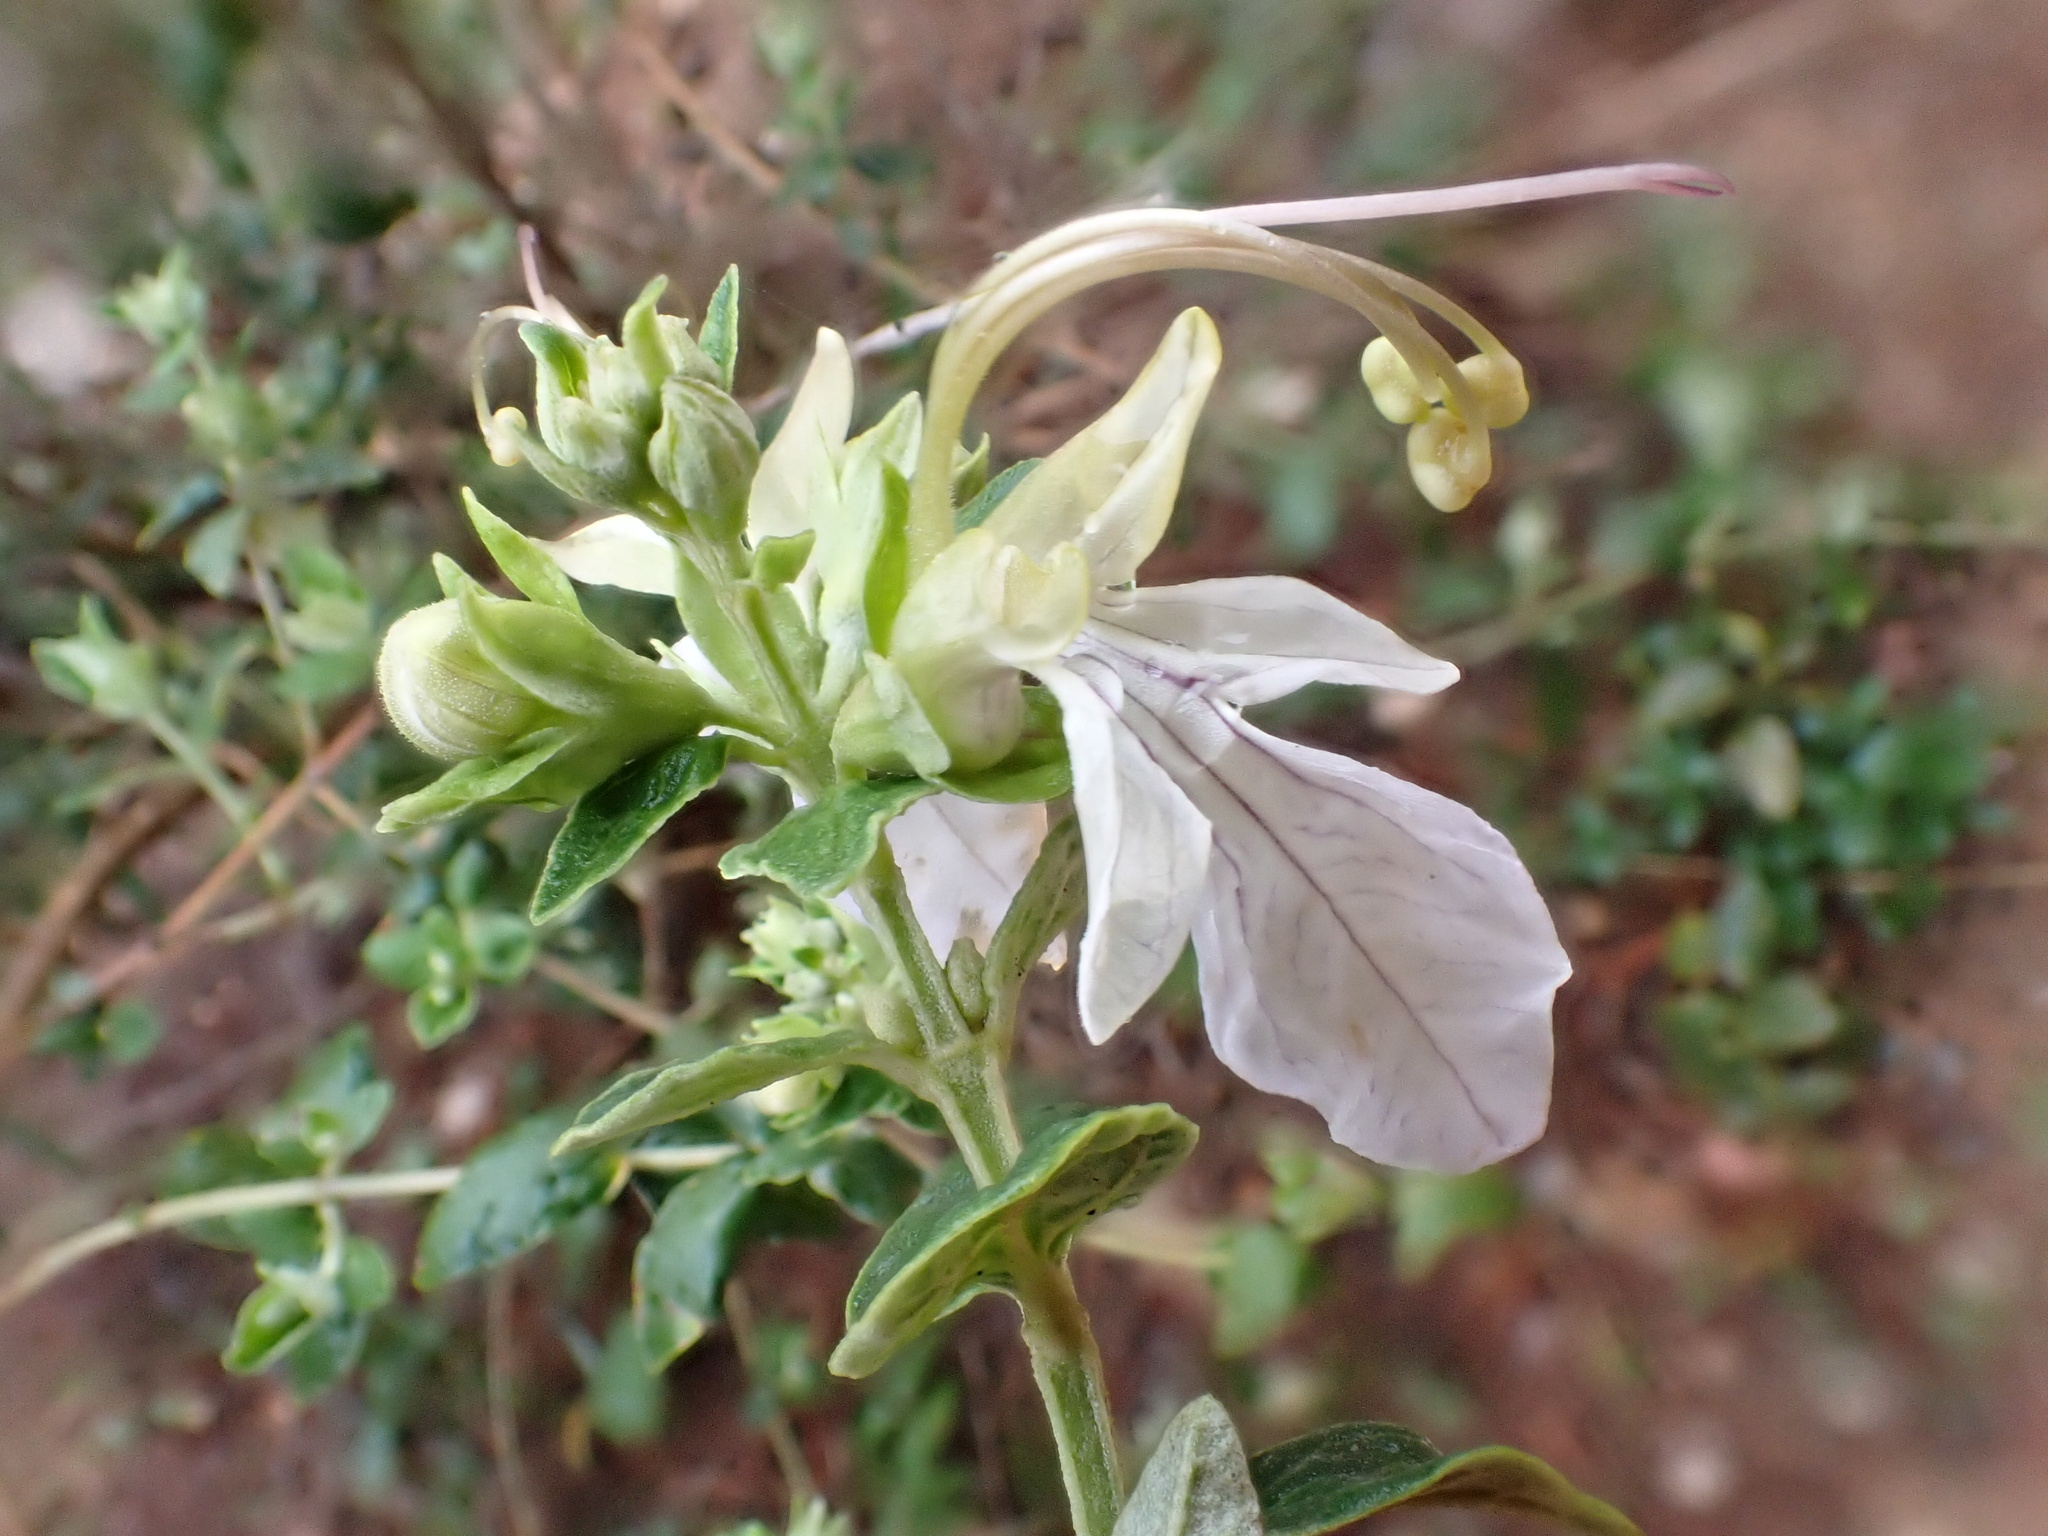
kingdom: Plantae
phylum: Tracheophyta
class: Magnoliopsida
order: Lamiales
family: Lamiaceae
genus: Teucrium
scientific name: Teucrium fruticans
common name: Shrubby germander
